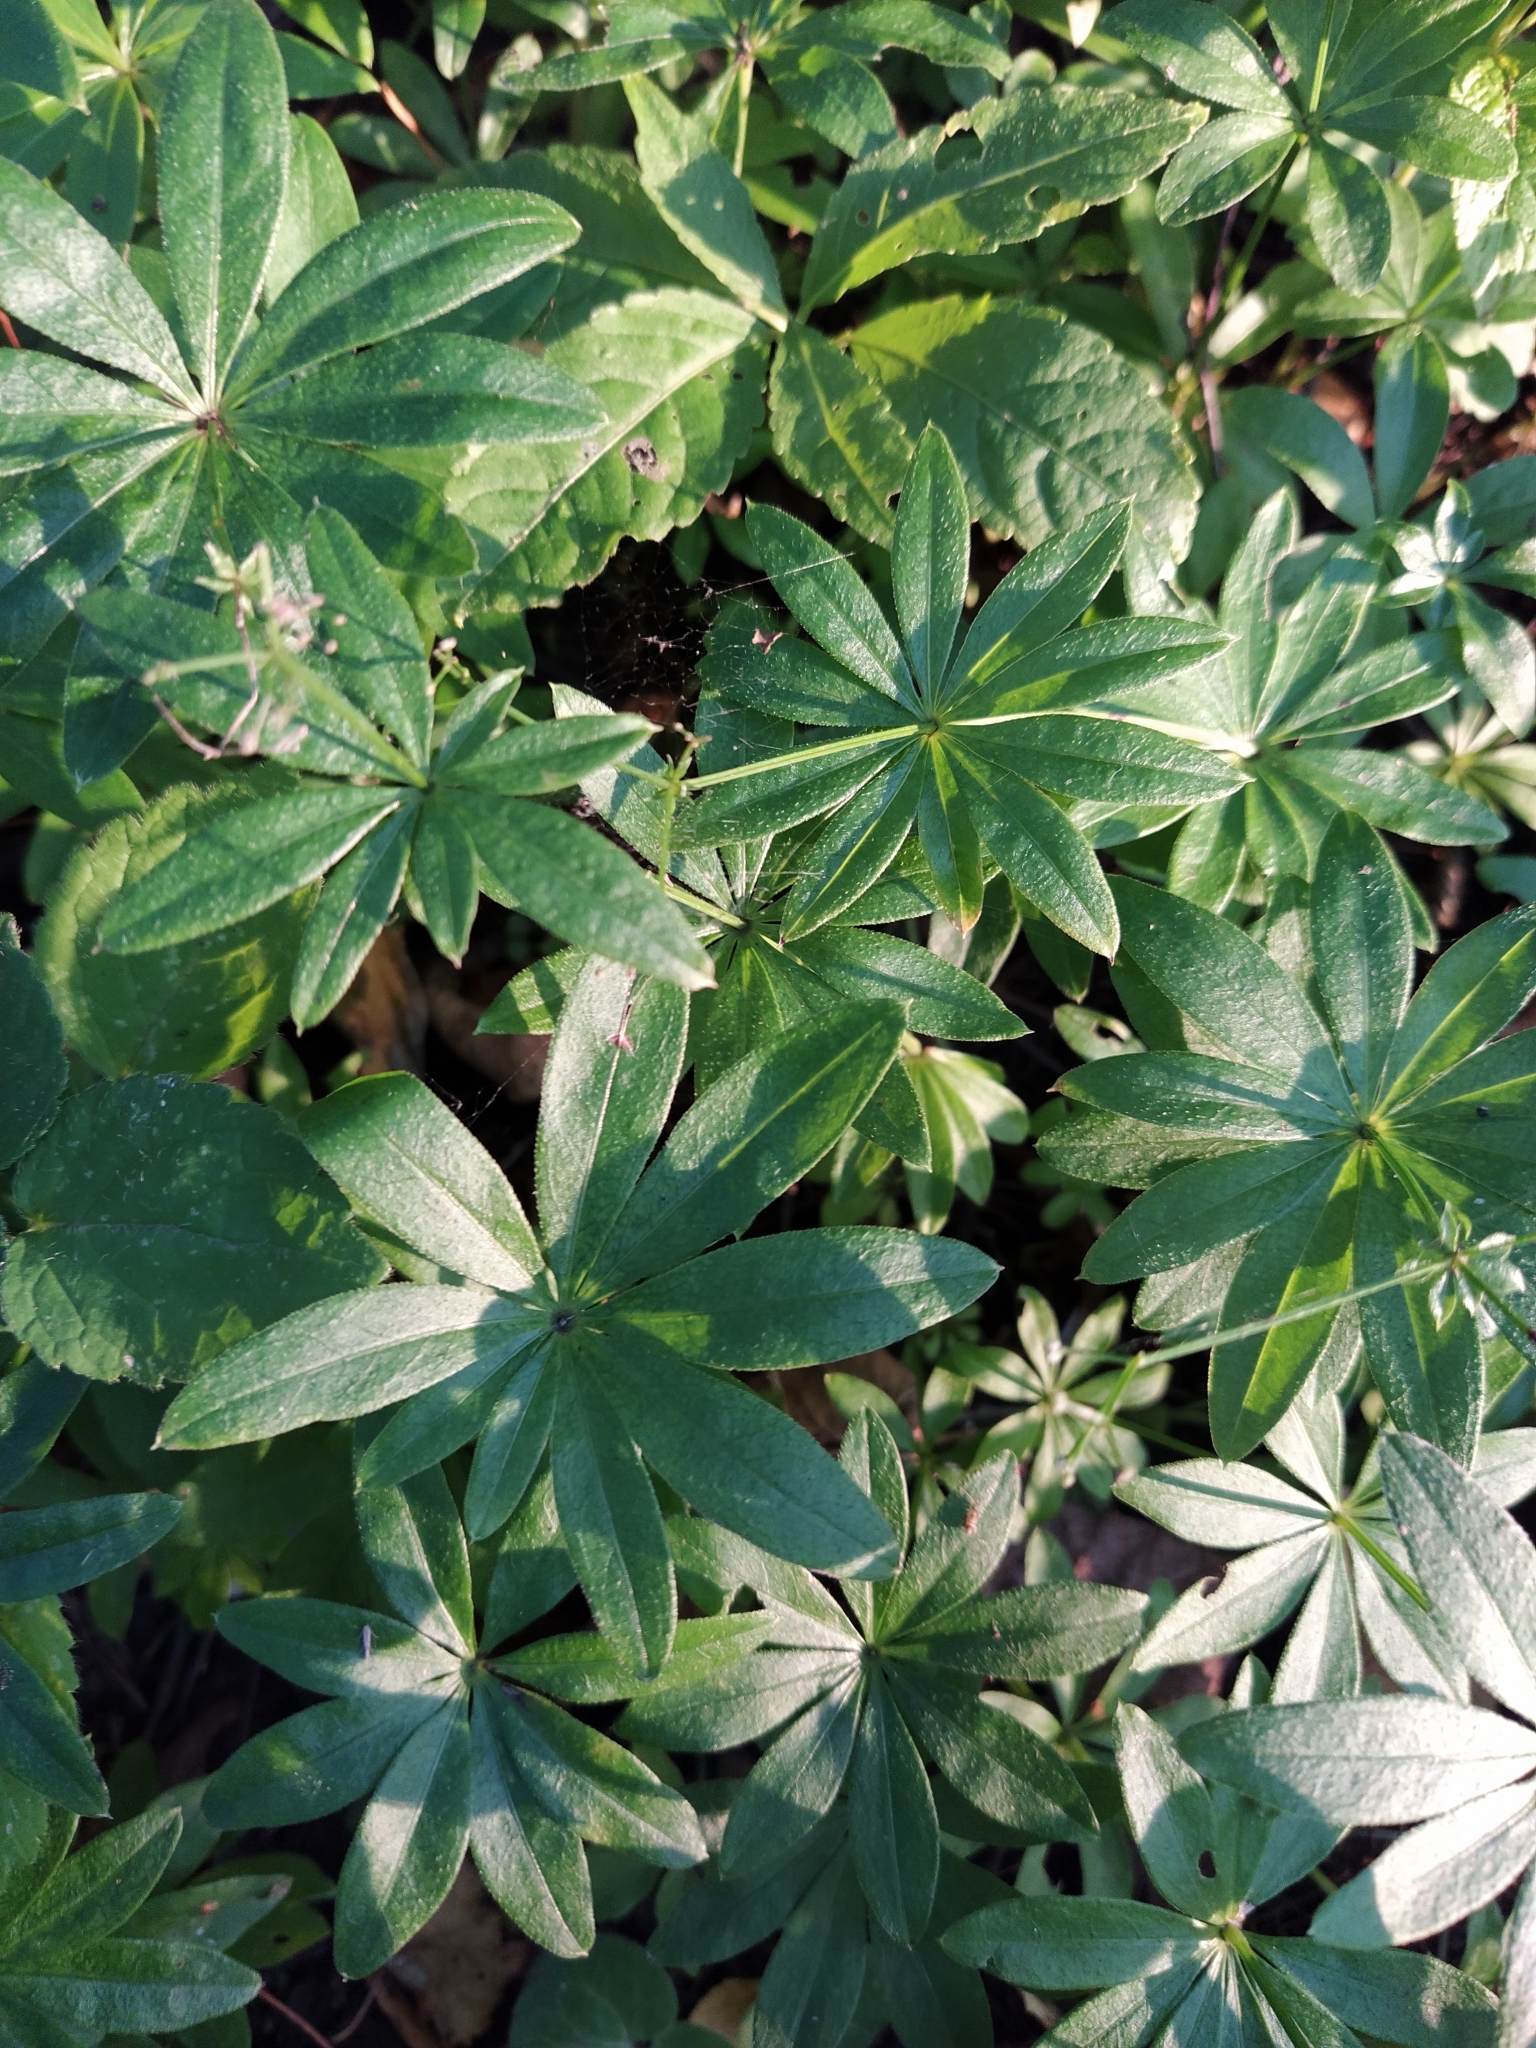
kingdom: Plantae
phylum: Tracheophyta
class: Magnoliopsida
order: Gentianales
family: Rubiaceae
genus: Galium
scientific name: Galium odoratum
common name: Sweet woodruff
